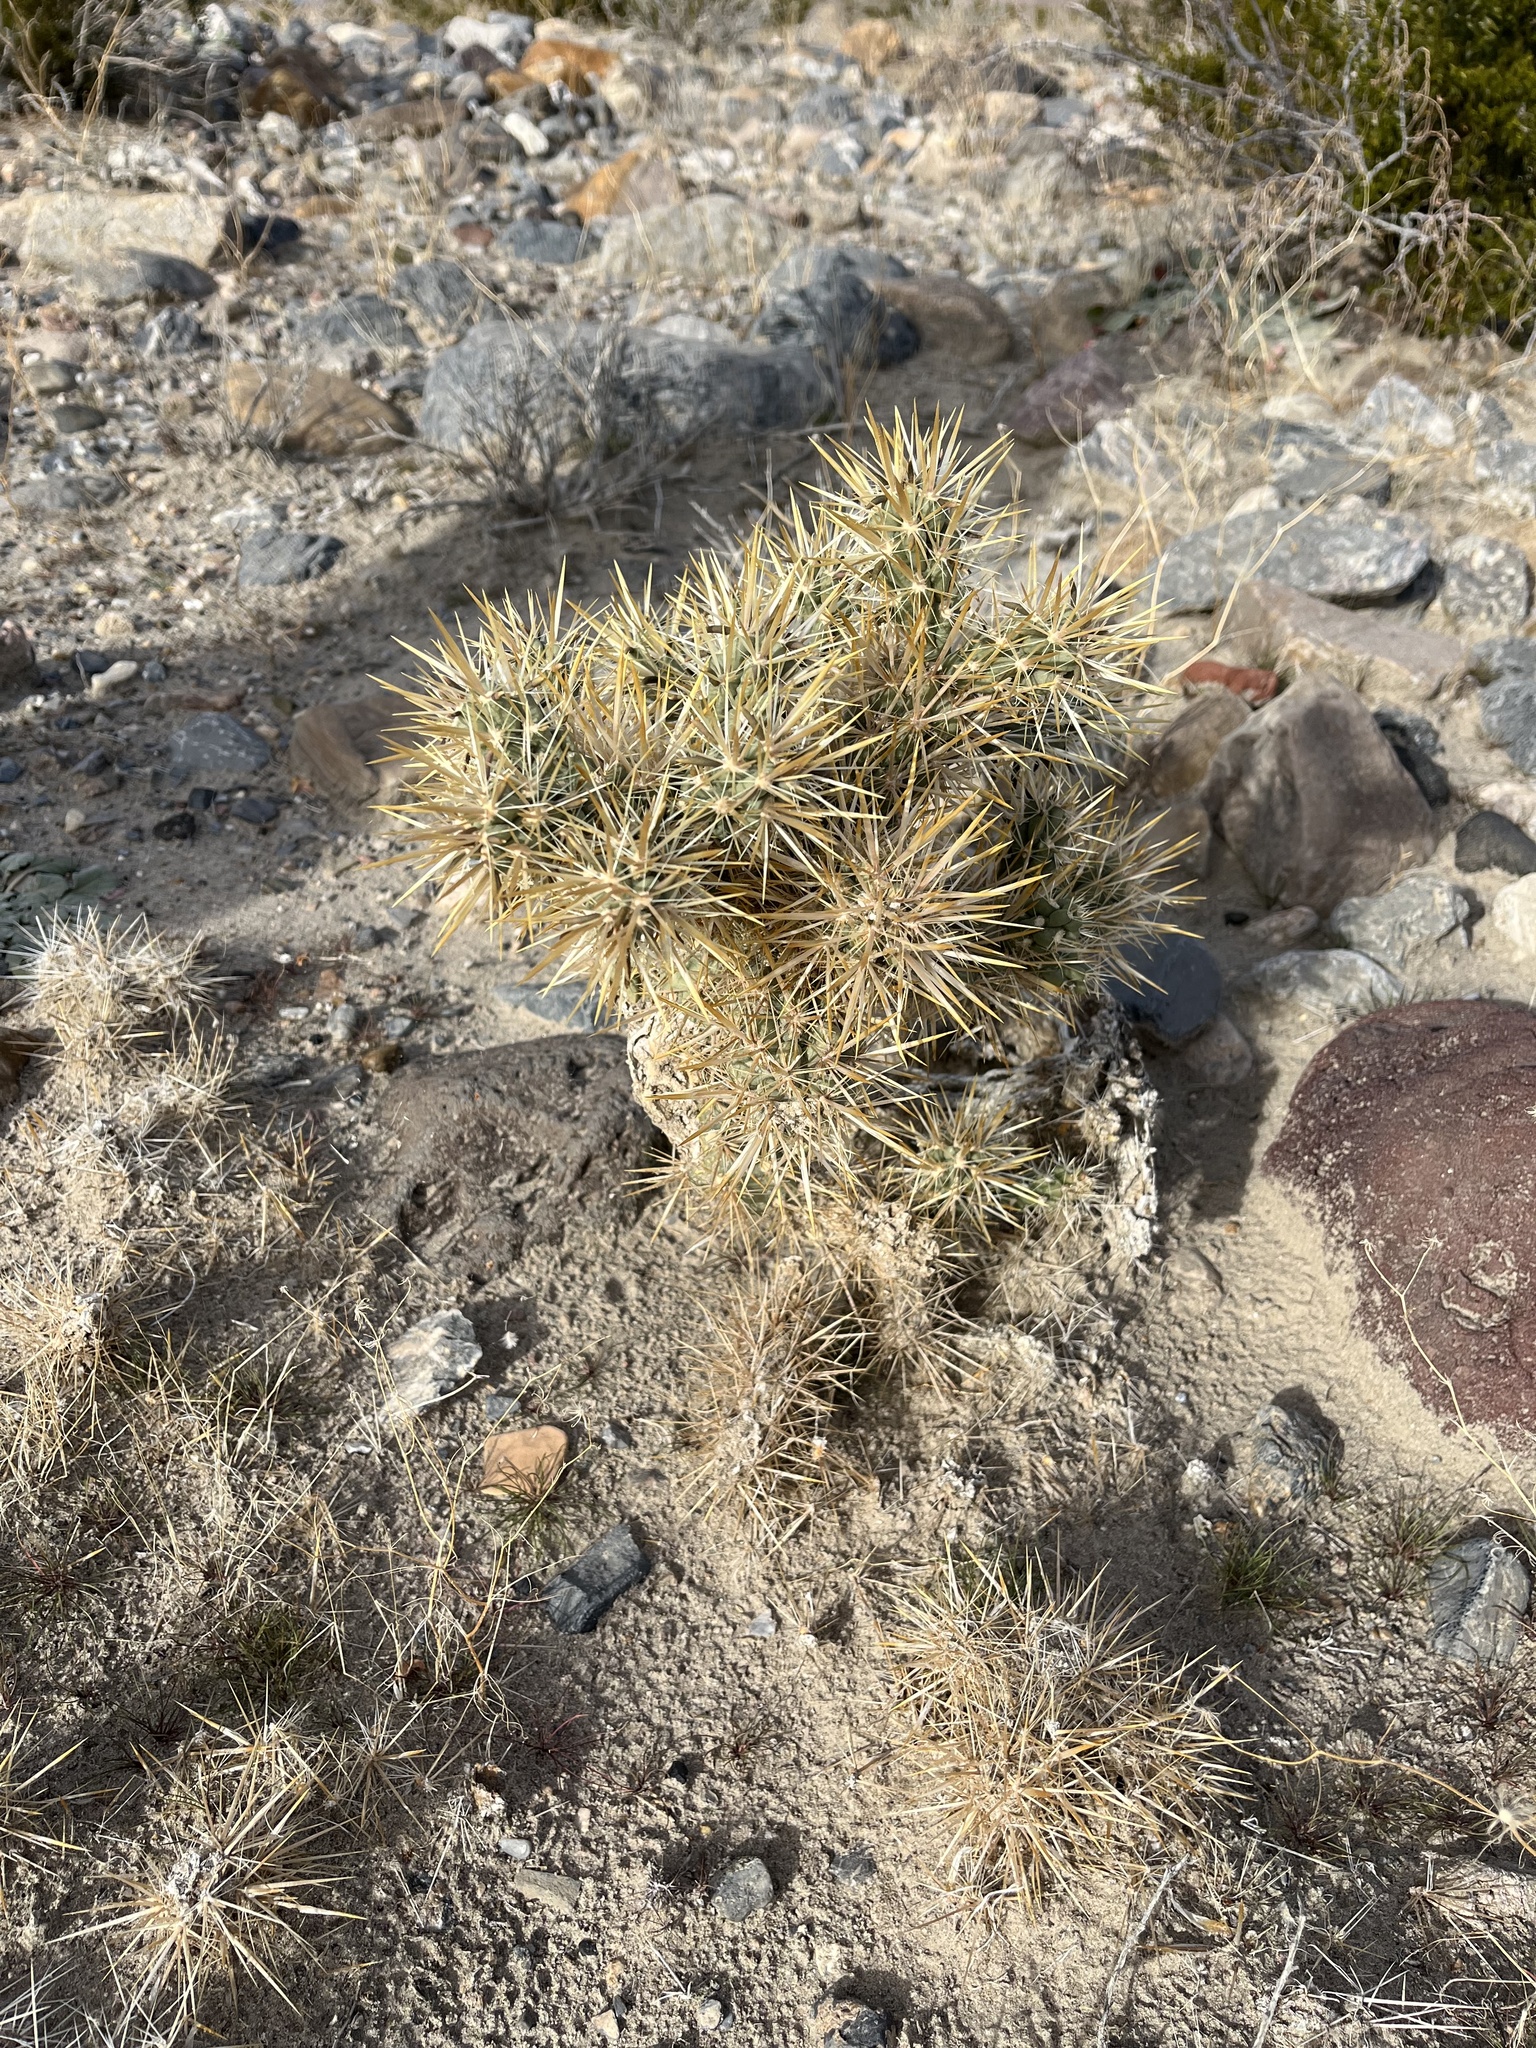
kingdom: Plantae
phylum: Tracheophyta
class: Magnoliopsida
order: Caryophyllales
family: Cactaceae
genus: Cylindropuntia
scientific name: Cylindropuntia echinocarpa
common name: Ground cholla
